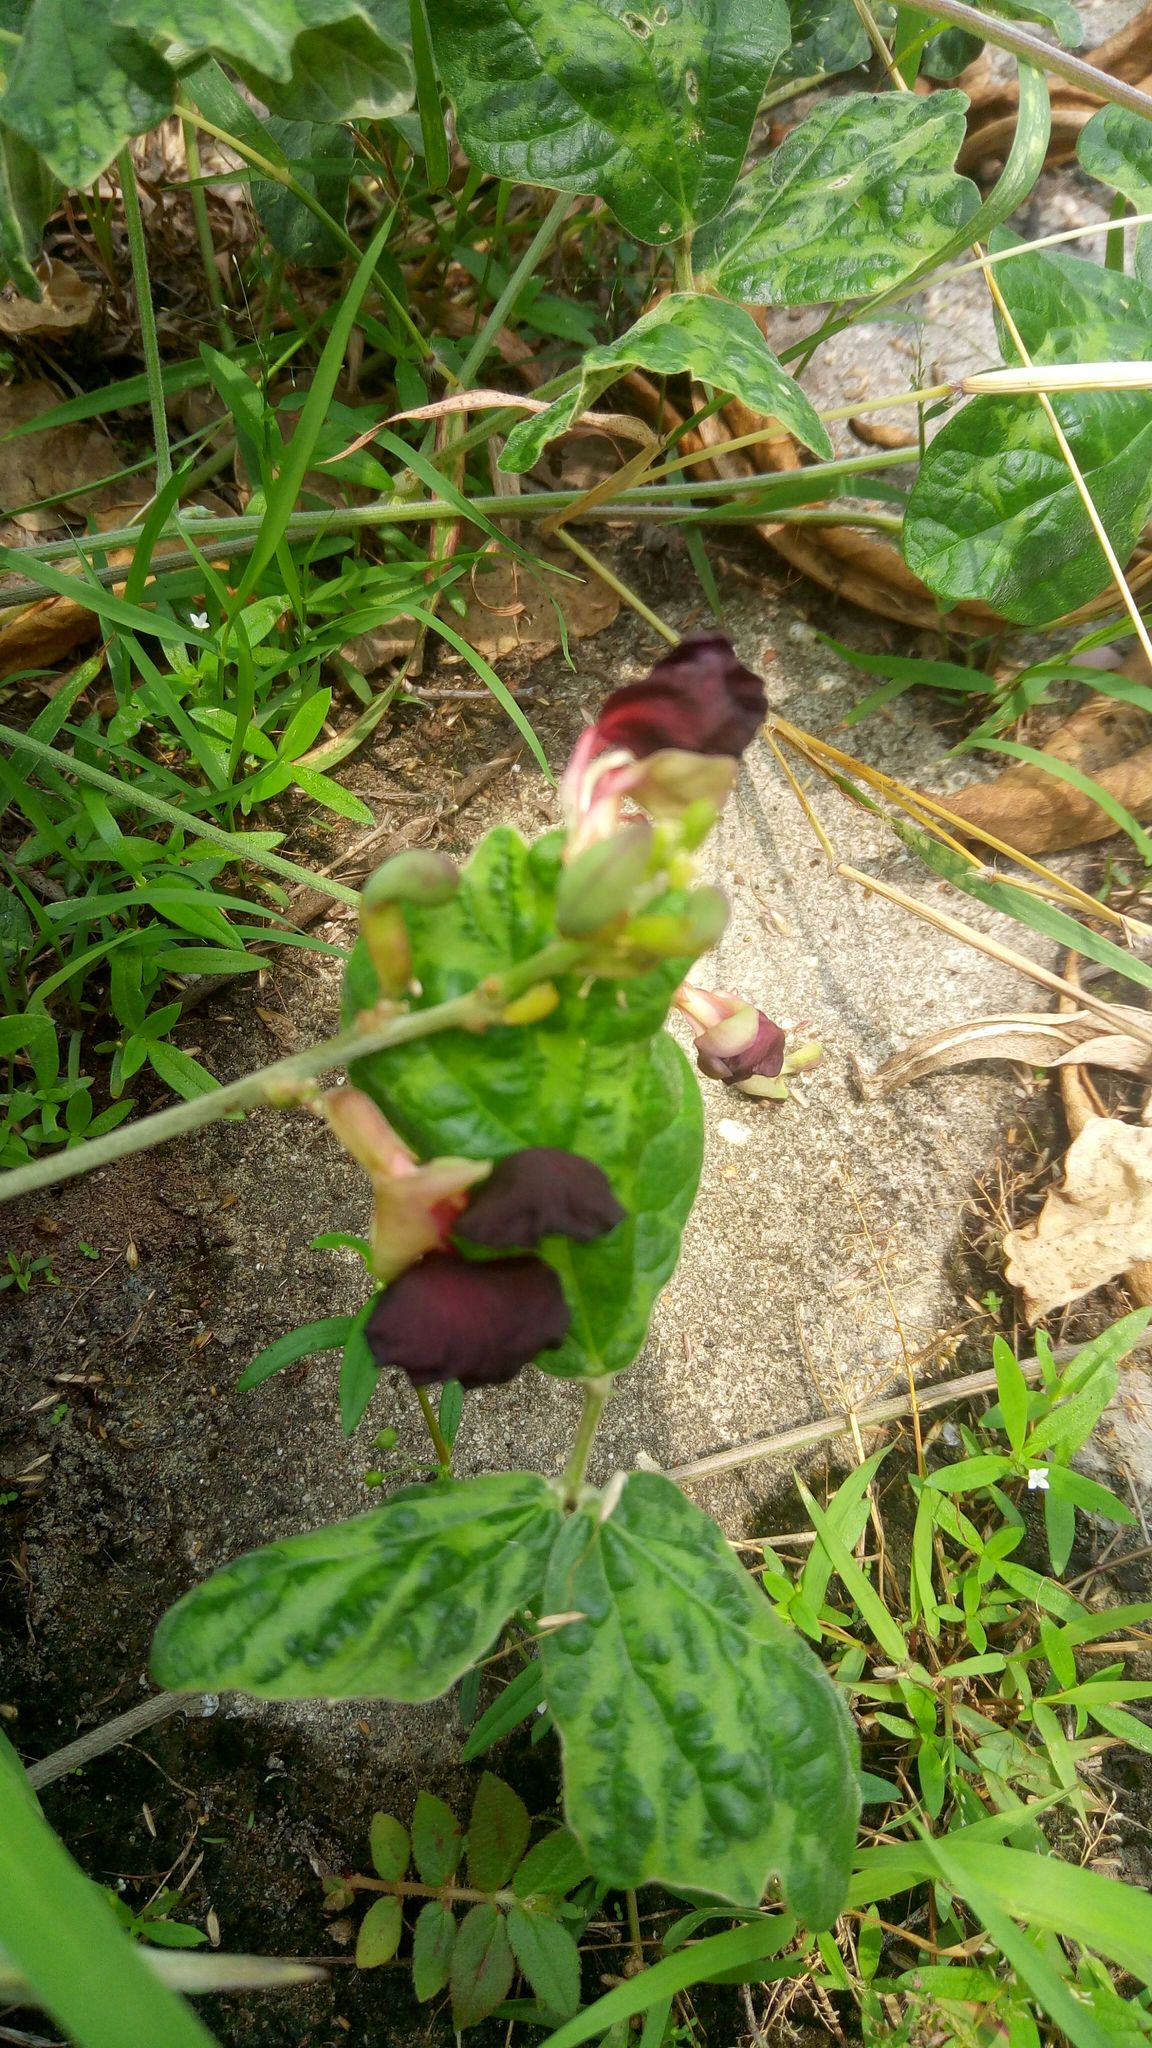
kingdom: Plantae
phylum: Tracheophyta
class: Magnoliopsida
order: Fabales
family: Fabaceae
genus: Macroptilium
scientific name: Macroptilium atropurpureum
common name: Purple bushbean
